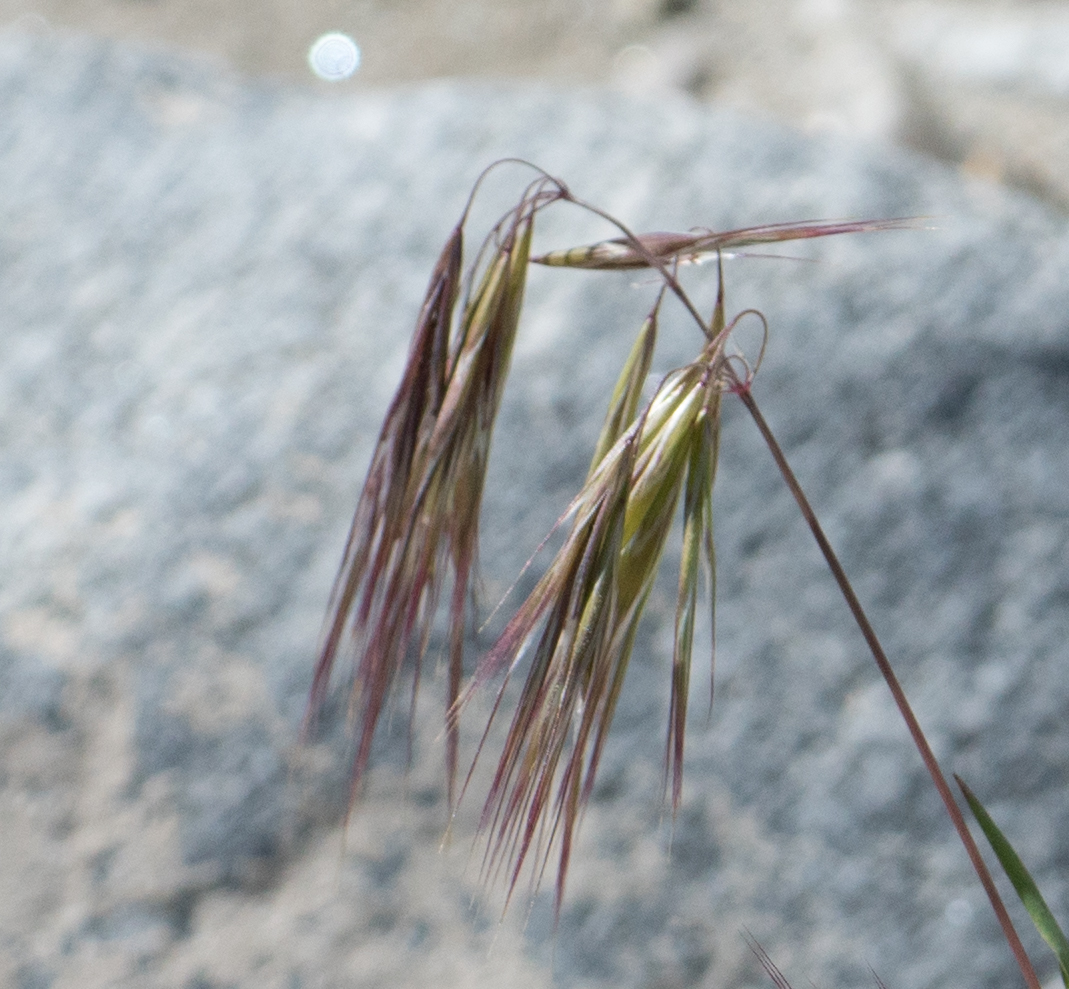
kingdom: Plantae
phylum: Tracheophyta
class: Liliopsida
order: Poales
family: Poaceae
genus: Bromus
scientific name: Bromus tectorum
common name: Cheatgrass
